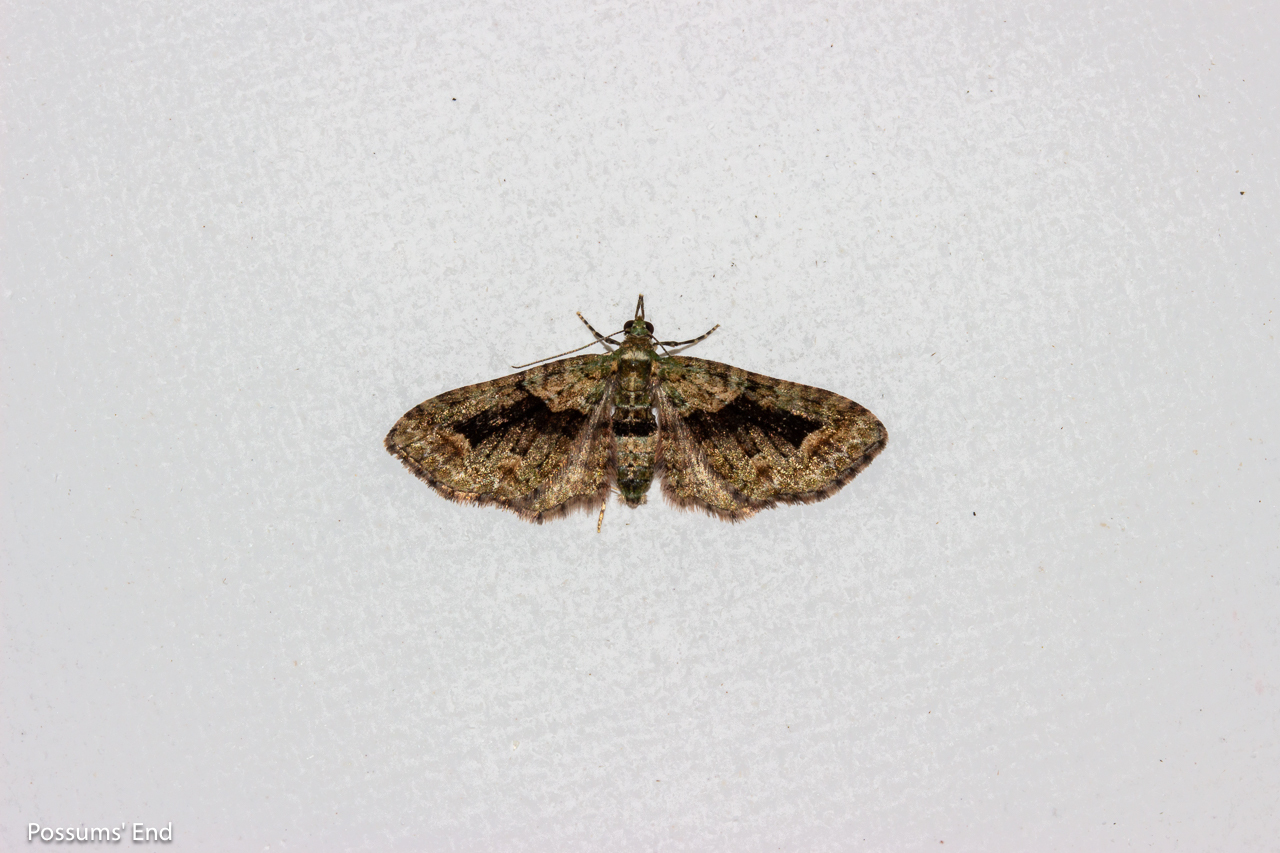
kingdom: Animalia
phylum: Arthropoda
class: Insecta
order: Lepidoptera
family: Geometridae
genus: Pasiphila
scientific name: Pasiphila suffusa
